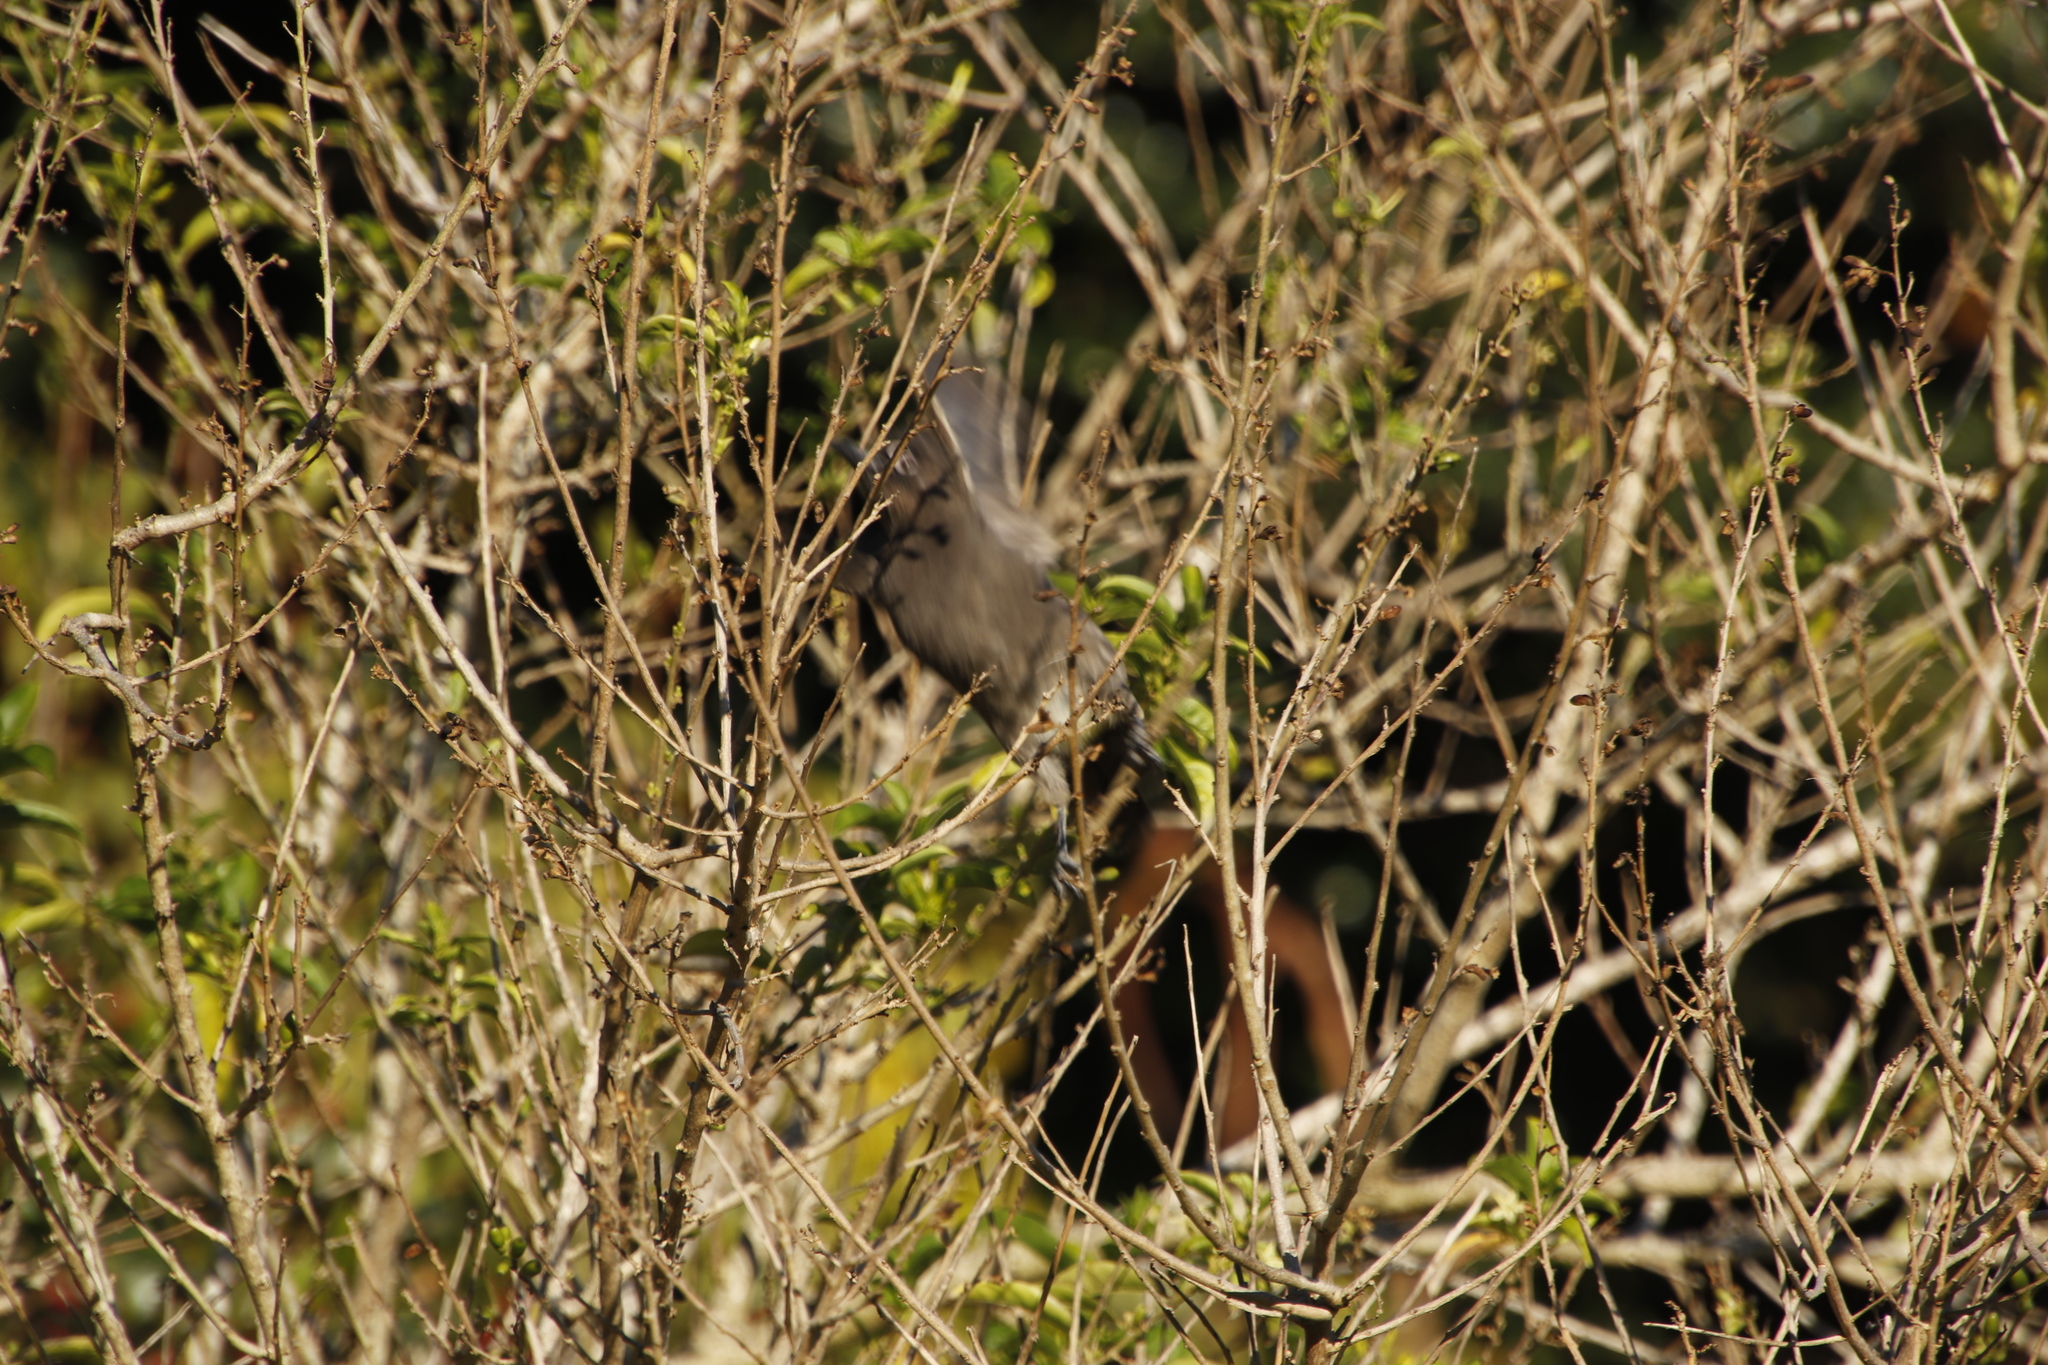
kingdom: Animalia
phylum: Chordata
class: Aves
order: Passeriformes
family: Pycnonotidae
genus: Pycnonotus
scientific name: Pycnonotus capensis
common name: Cape bulbul
